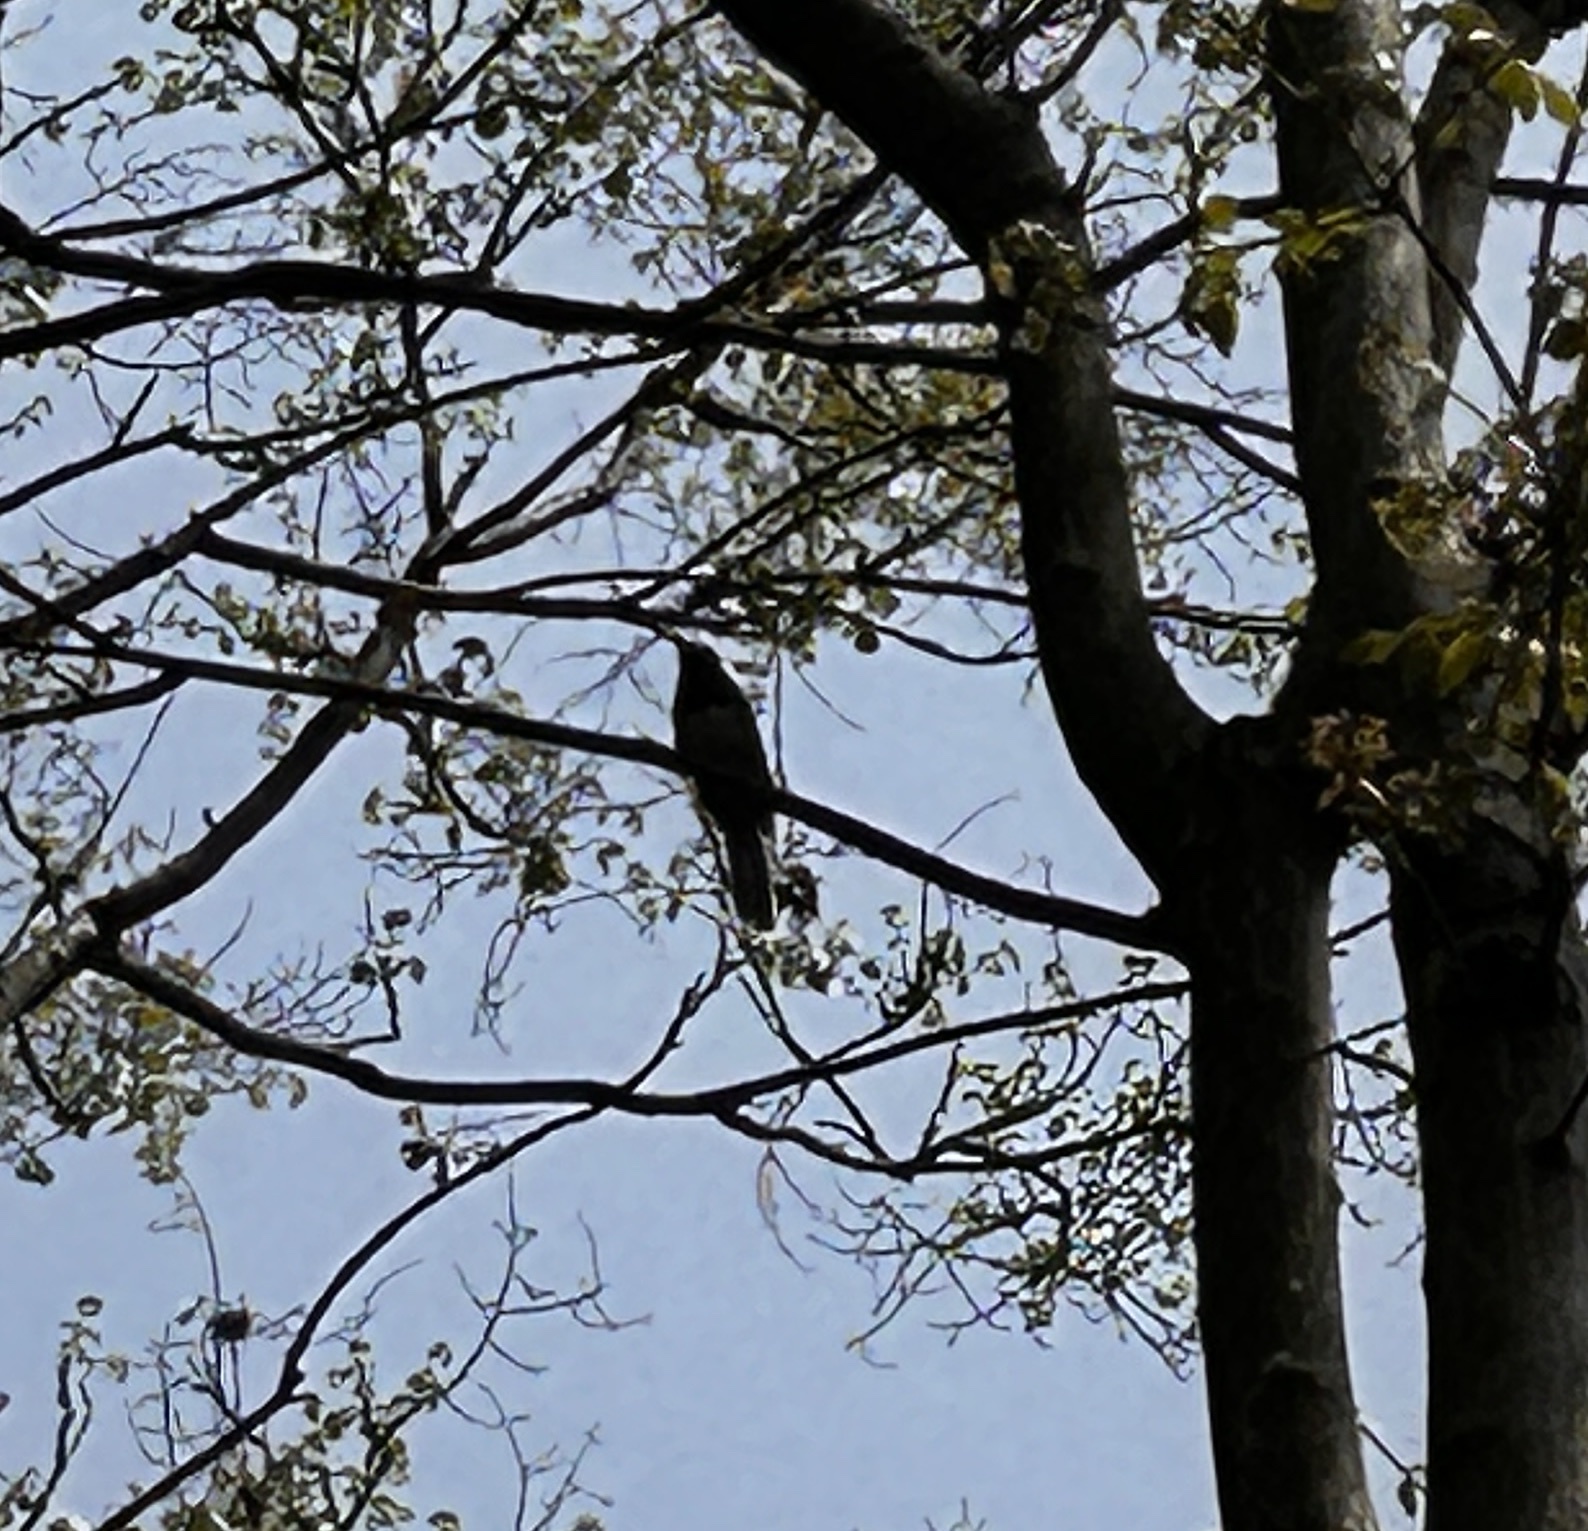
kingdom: Animalia
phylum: Chordata
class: Aves
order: Cuculiformes
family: Cuculidae
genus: Eudynamys
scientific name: Eudynamys scolopaceus
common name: Asian koel
